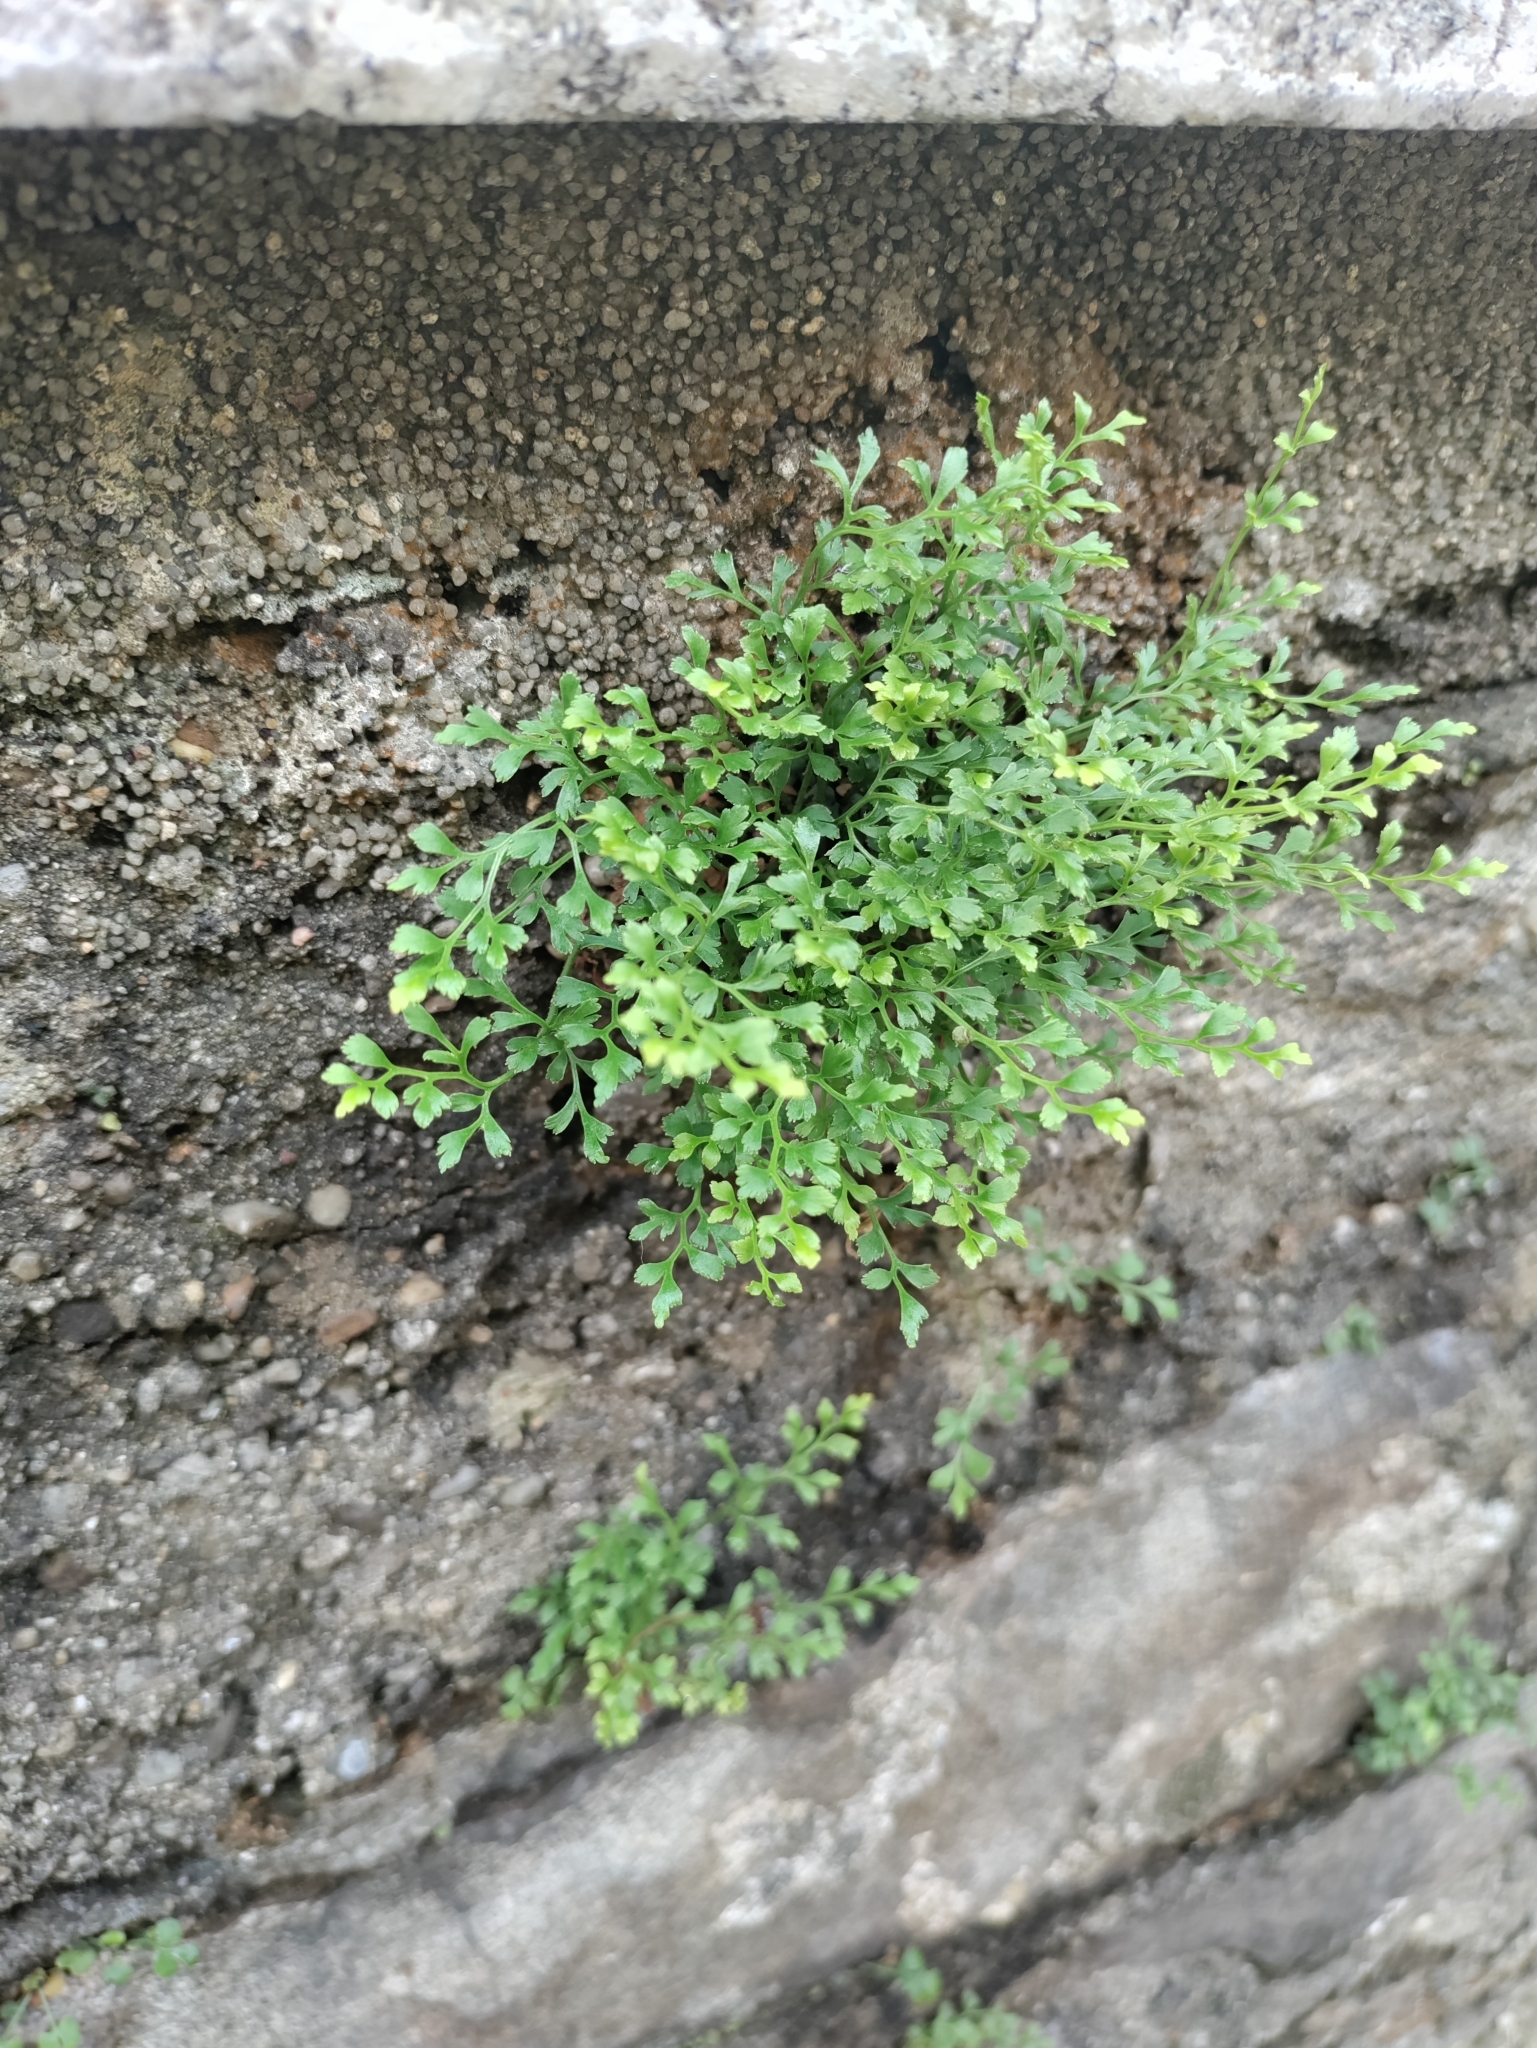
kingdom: Plantae
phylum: Tracheophyta
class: Polypodiopsida
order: Polypodiales
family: Aspleniaceae
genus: Asplenium
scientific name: Asplenium ruta-muraria
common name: Wall-rue
